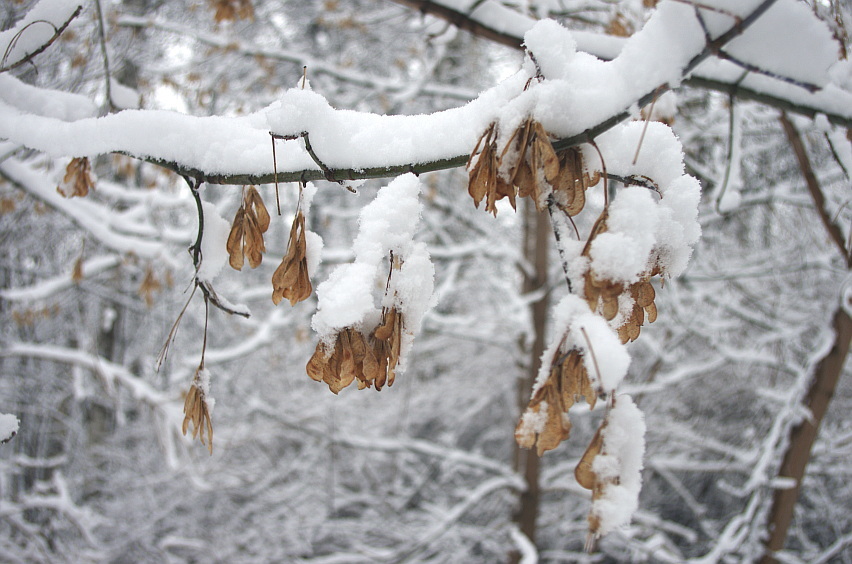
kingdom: Plantae
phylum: Tracheophyta
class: Magnoliopsida
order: Sapindales
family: Sapindaceae
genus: Acer
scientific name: Acer negundo
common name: Ashleaf maple
